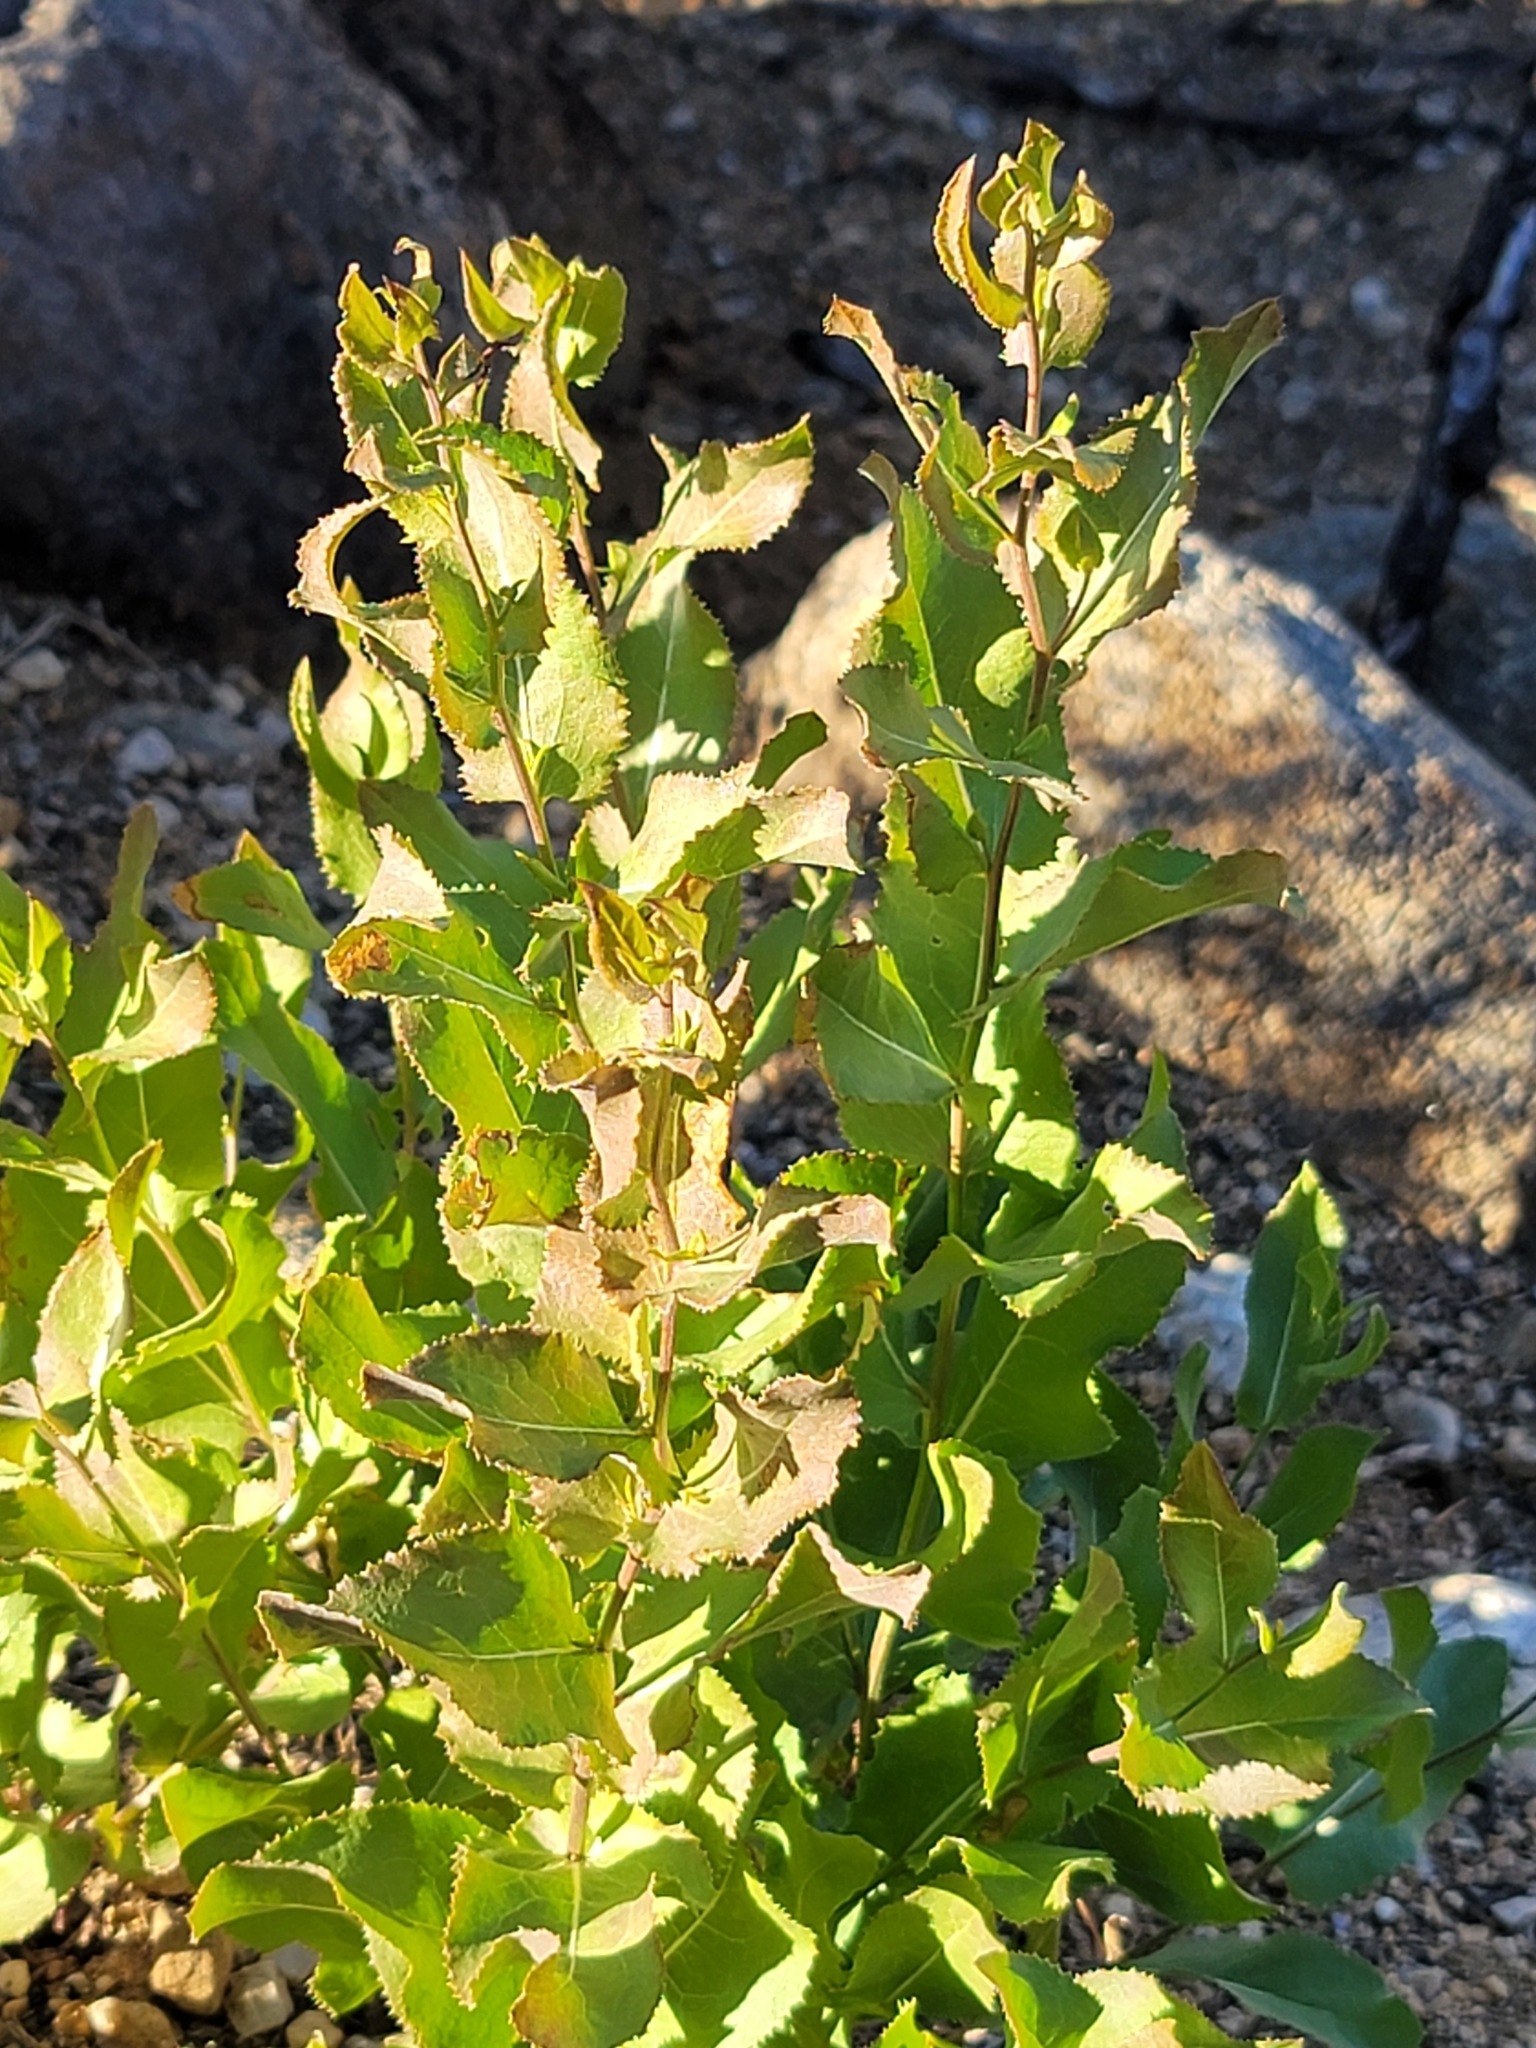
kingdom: Plantae
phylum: Tracheophyta
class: Magnoliopsida
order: Asterales
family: Asteraceae
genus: Acourtia
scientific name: Acourtia wrightii
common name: Brownfoot
